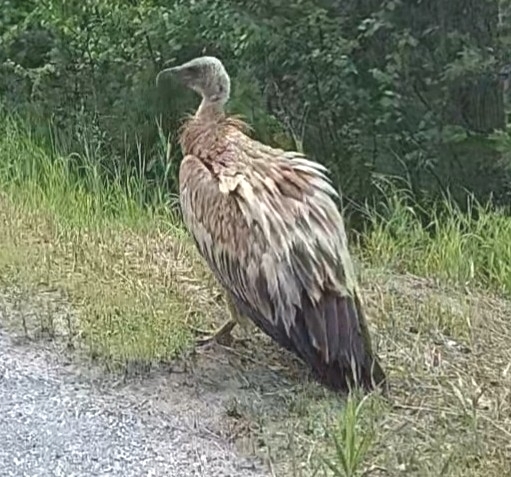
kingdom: Animalia
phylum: Chordata
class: Aves
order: Accipitriformes
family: Accipitridae
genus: Gyps
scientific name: Gyps himalayensis
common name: Himalayan griffon
